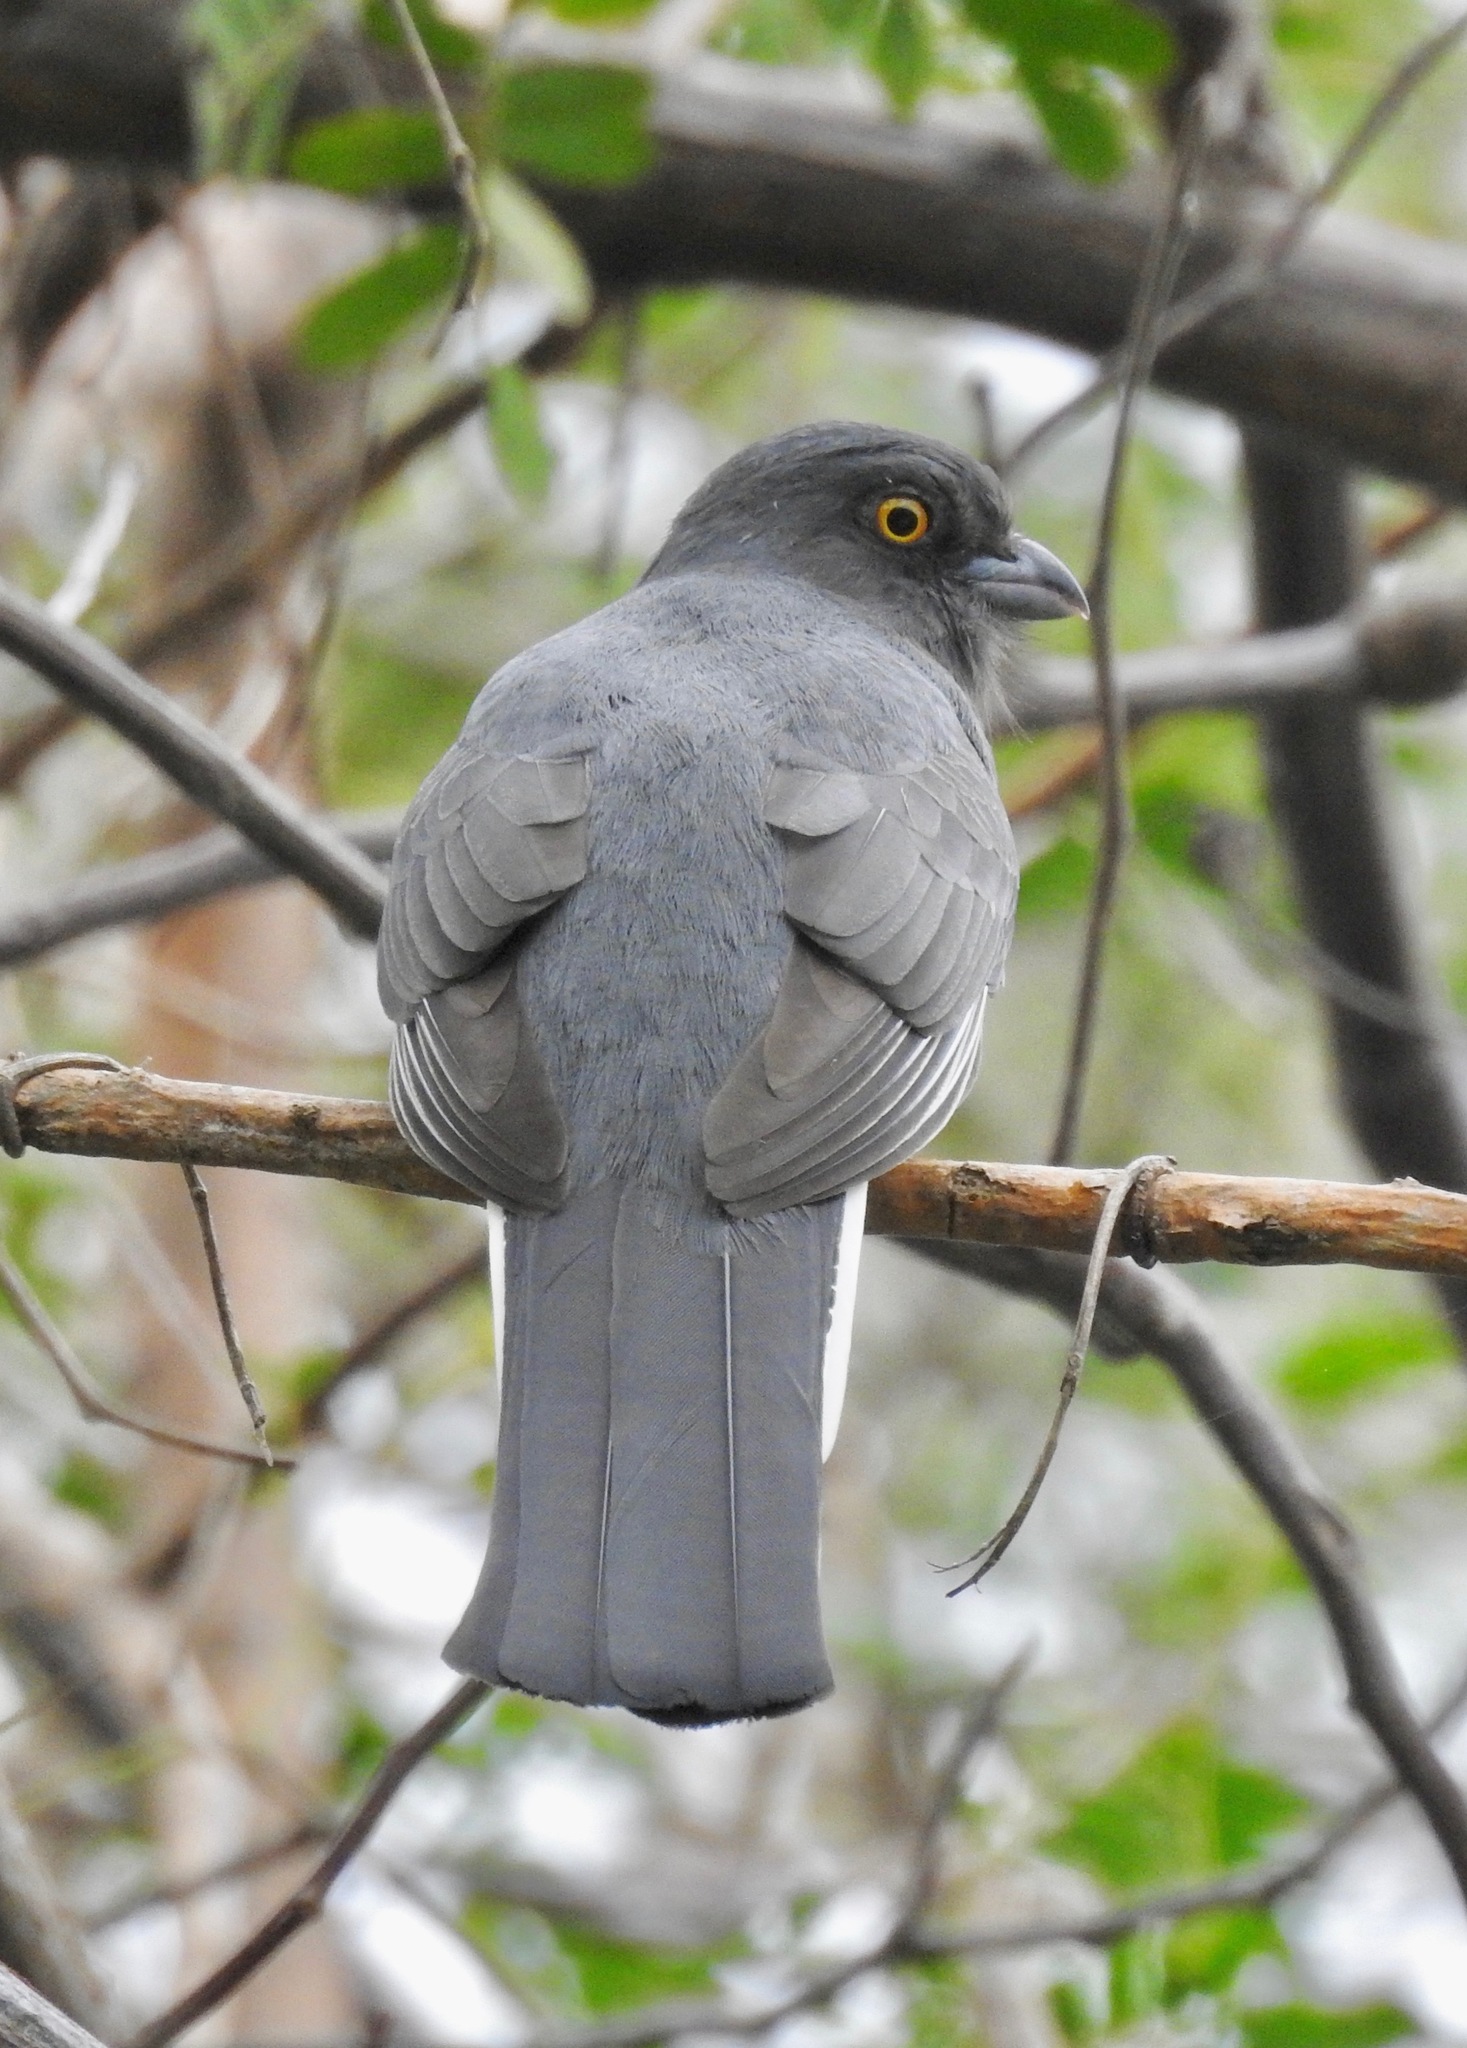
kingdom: Animalia
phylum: Chordata
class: Aves
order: Trogoniformes
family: Trogonidae
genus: Trogon
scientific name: Trogon citreolus
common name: Citreoline trogon
